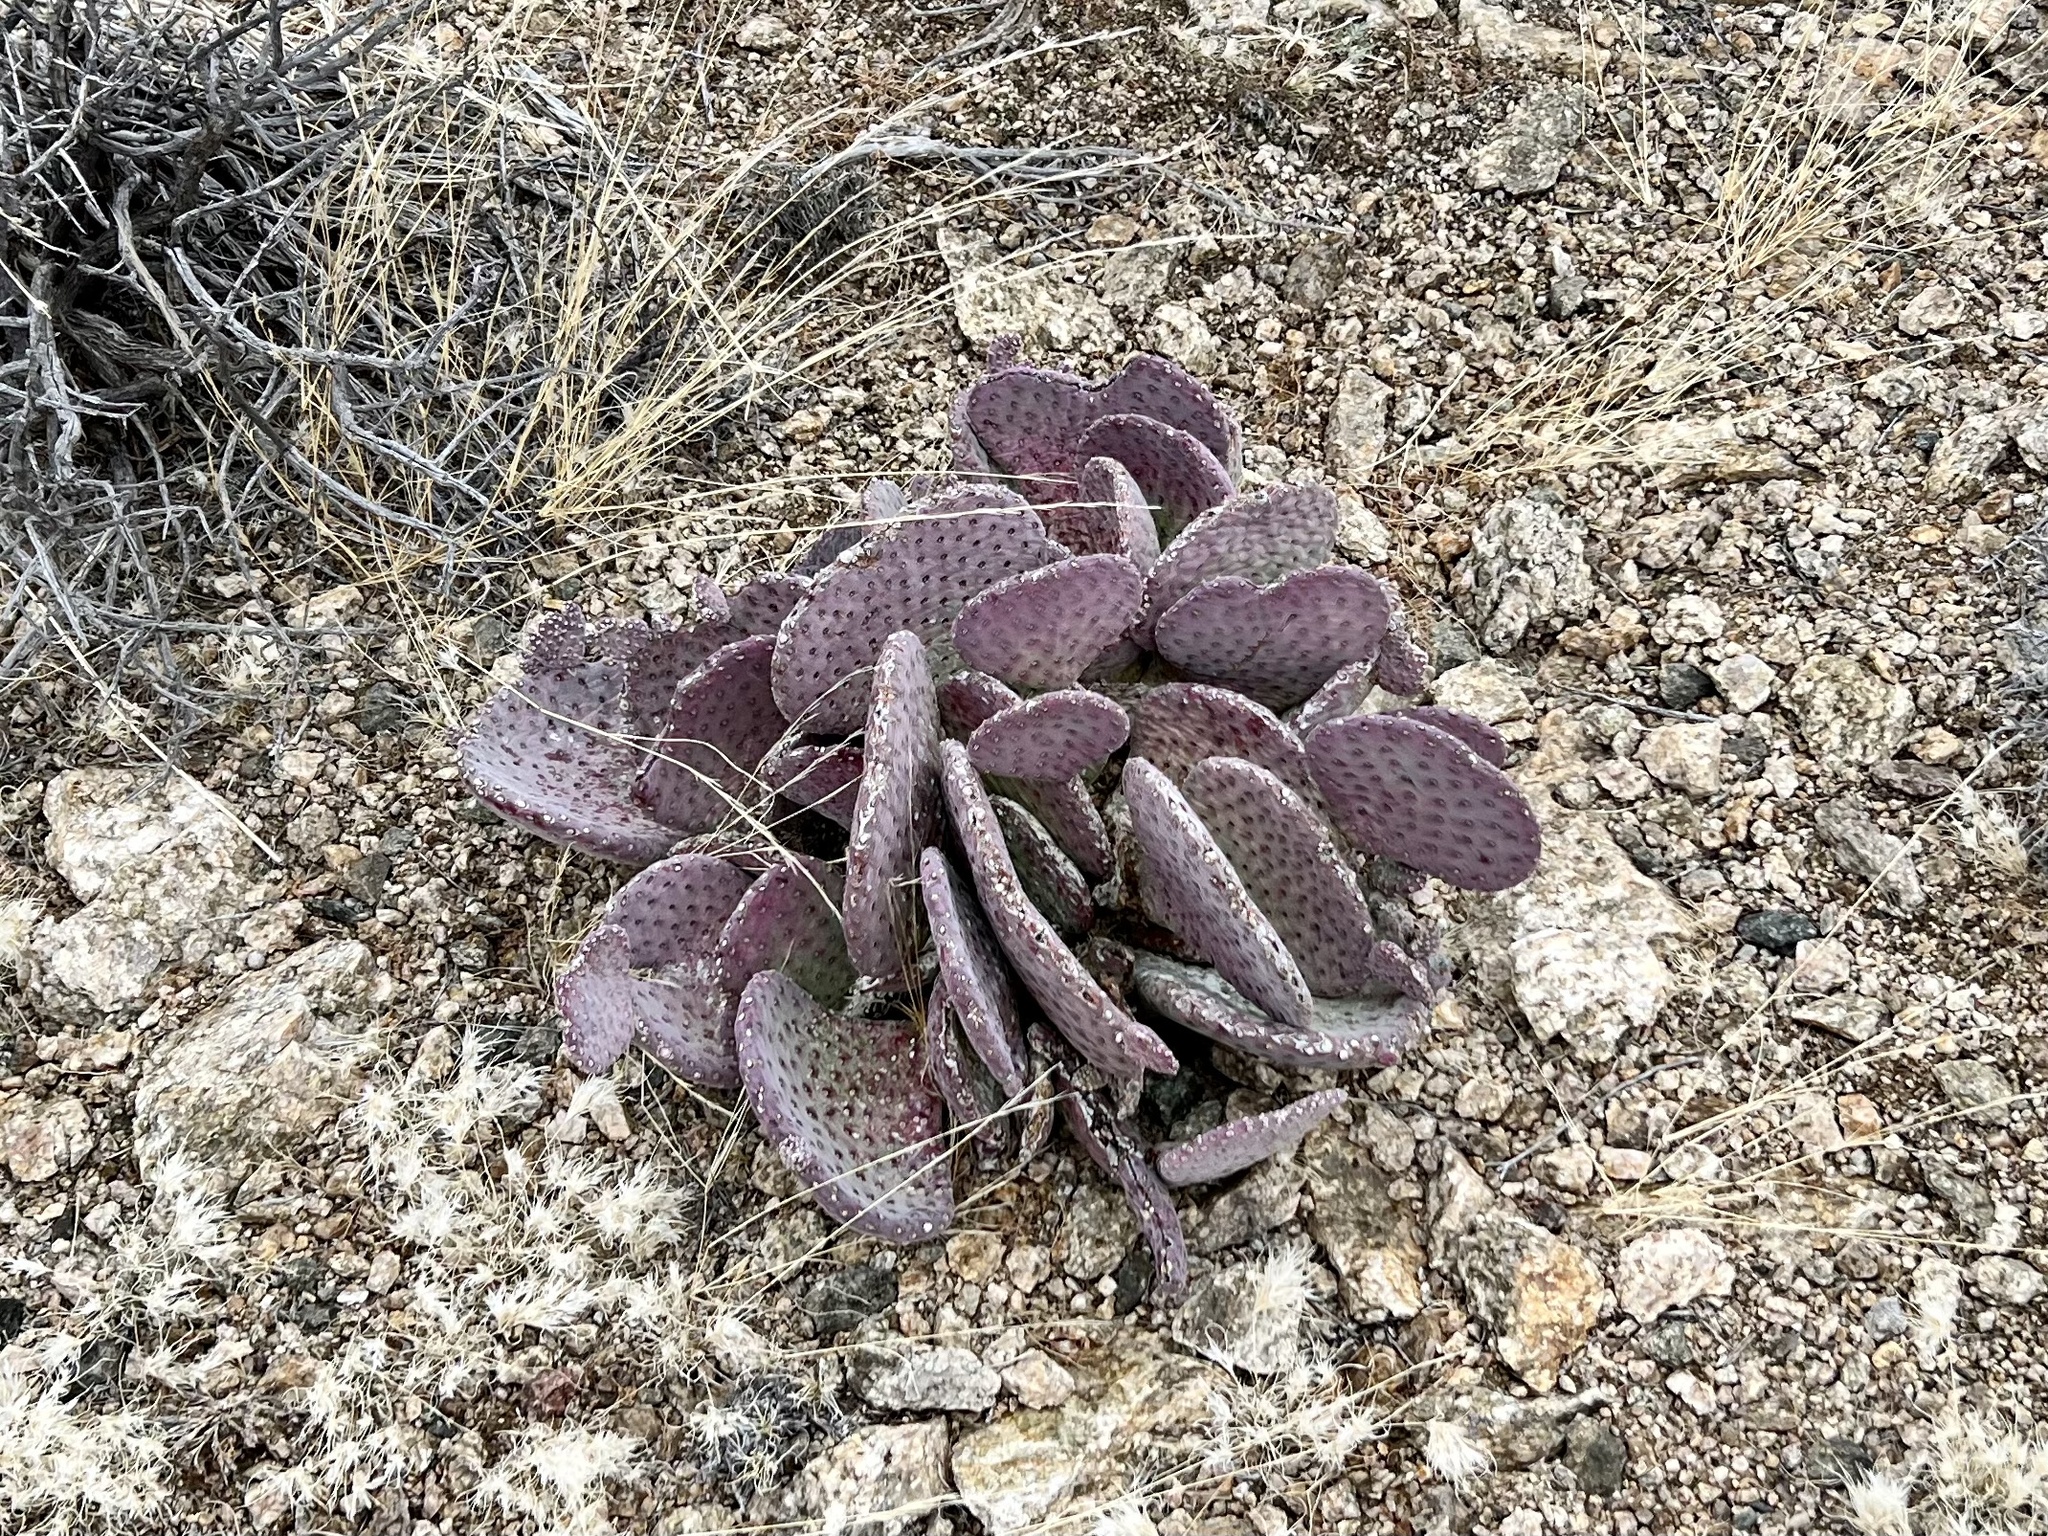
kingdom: Plantae
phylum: Tracheophyta
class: Magnoliopsida
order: Caryophyllales
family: Cactaceae
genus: Opuntia
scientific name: Opuntia basilaris
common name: Beavertail prickly-pear
